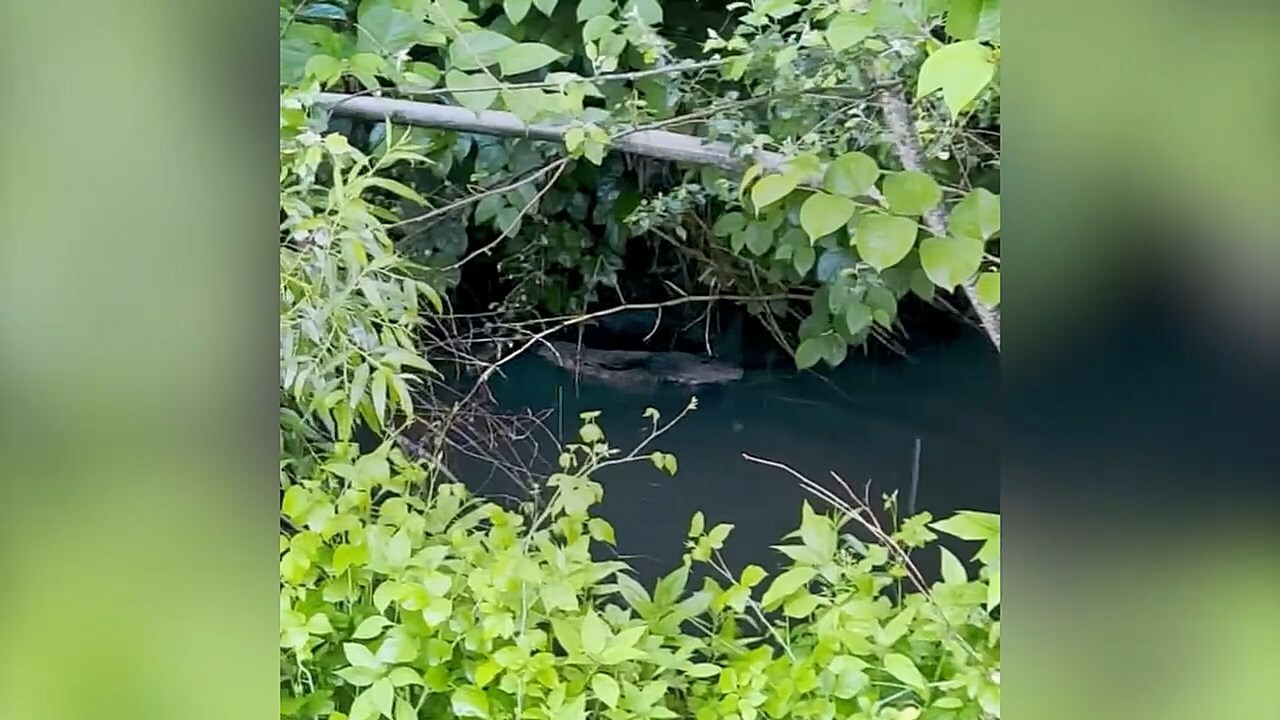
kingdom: Animalia
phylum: Chordata
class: Mammalia
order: Rodentia
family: Castoridae
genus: Castor
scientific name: Castor fiber
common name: Eurasian beaver
